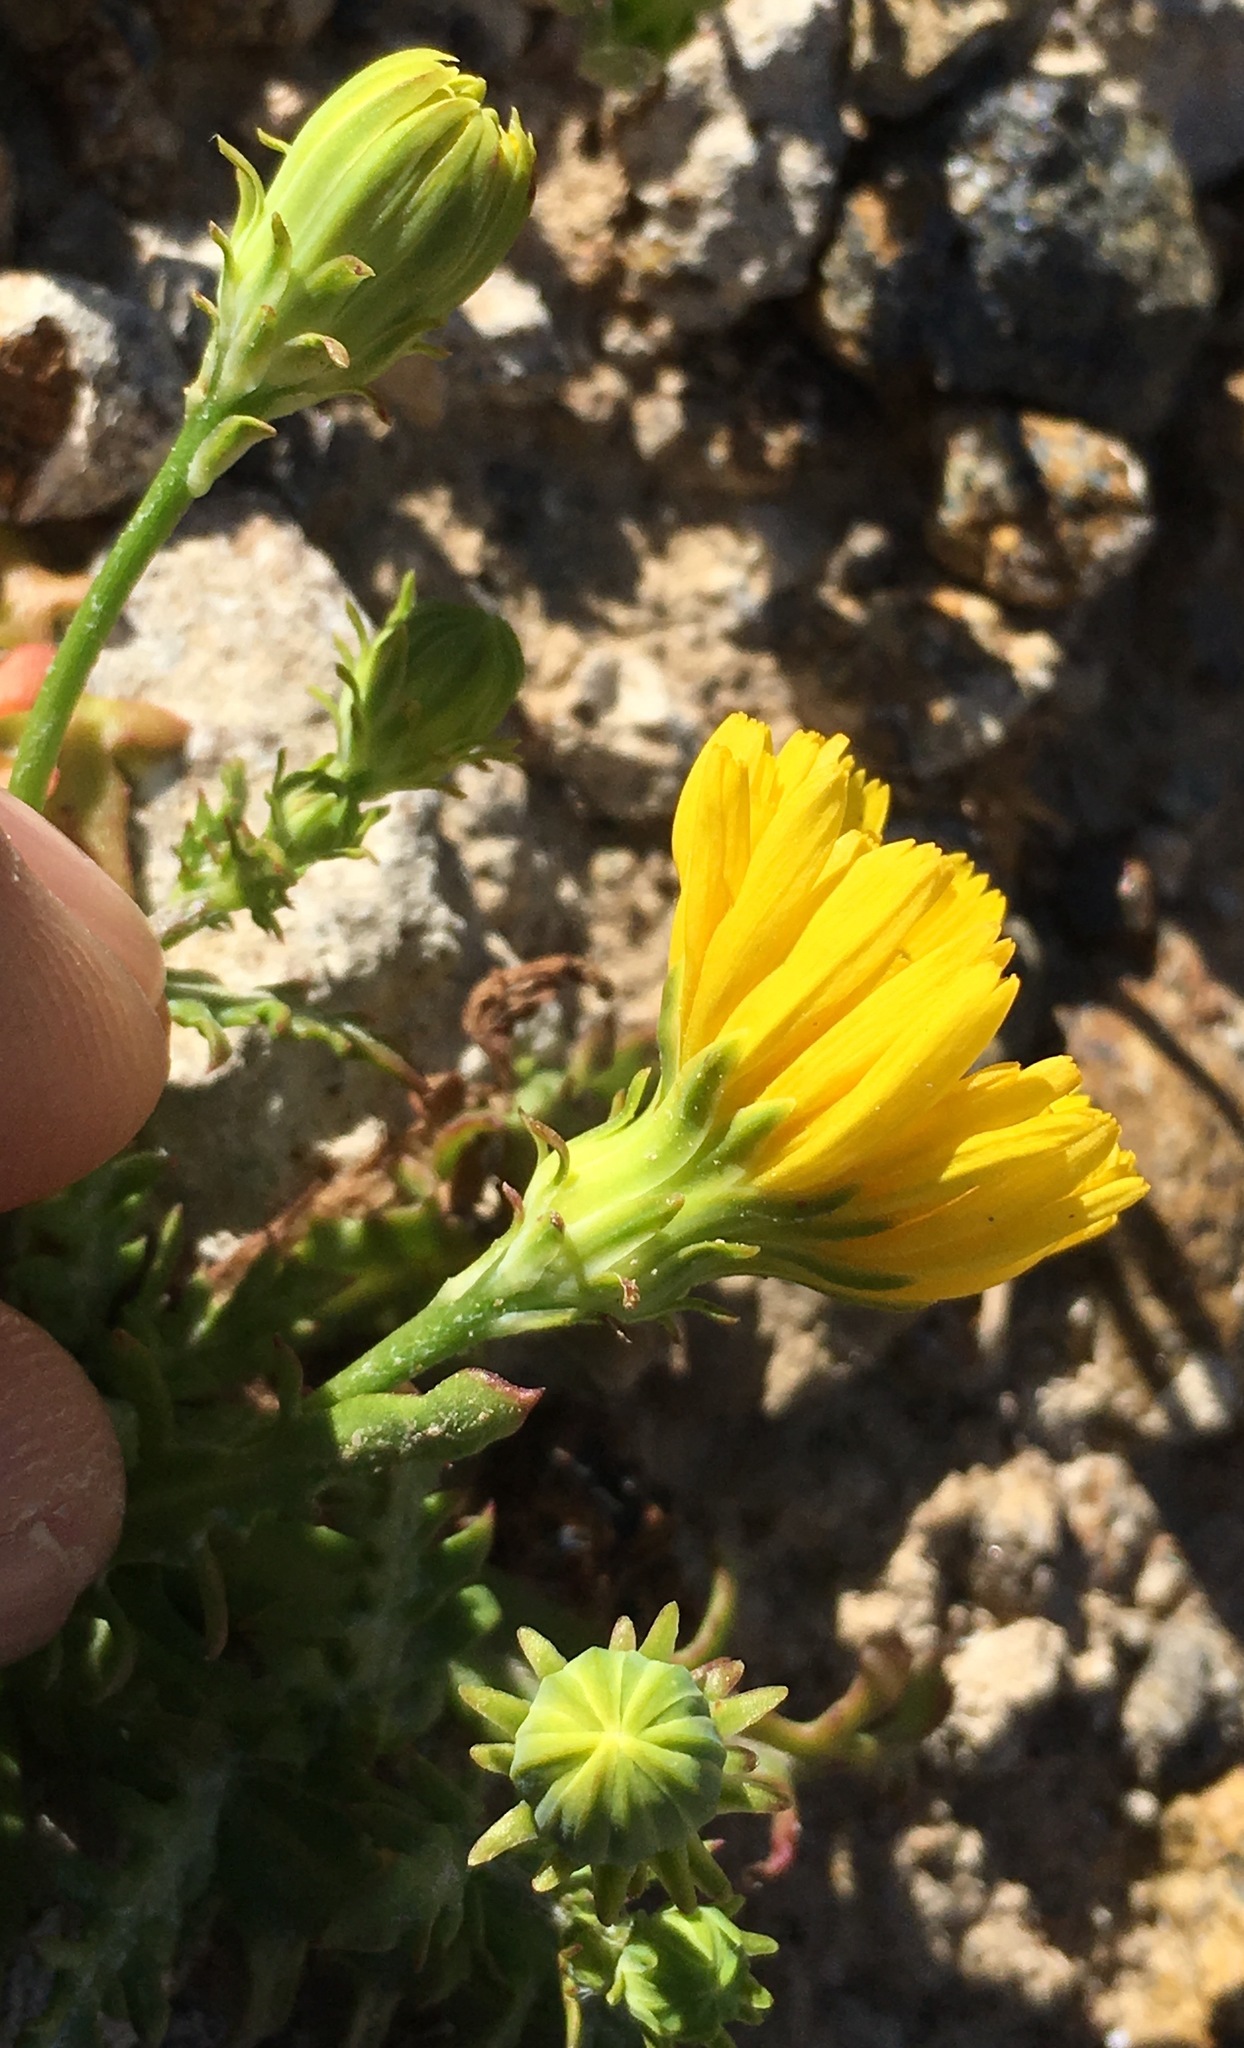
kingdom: Plantae
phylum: Tracheophyta
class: Magnoliopsida
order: Asterales
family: Asteraceae
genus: Malacothrix
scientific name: Malacothrix foliosa
